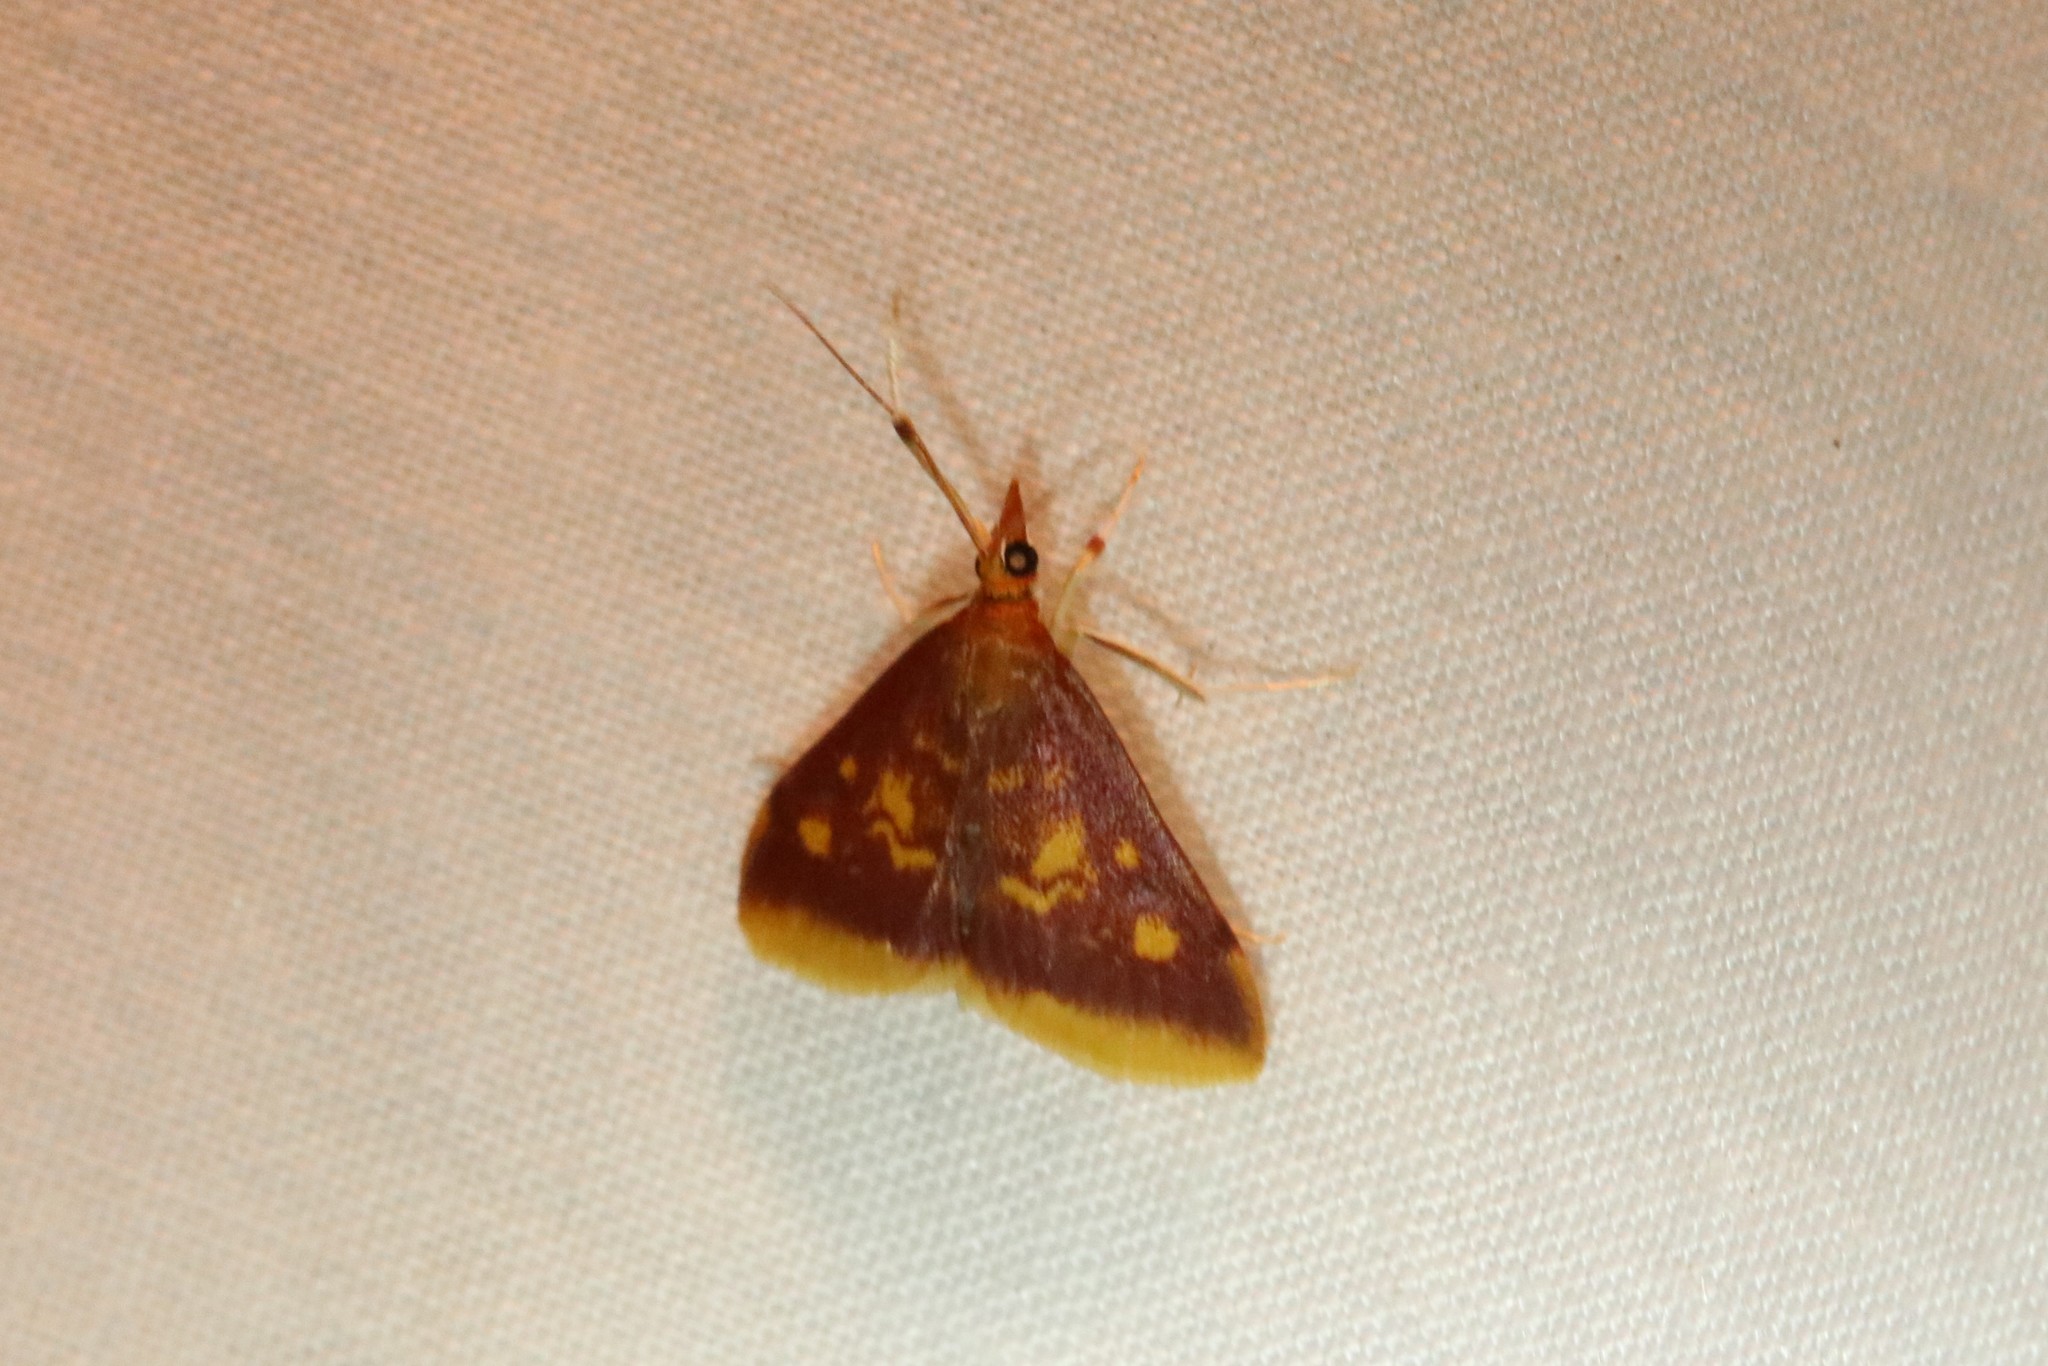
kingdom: Animalia
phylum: Arthropoda
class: Insecta
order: Lepidoptera
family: Crambidae
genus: Pyrausta
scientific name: Pyrausta acrionalis
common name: Mint-loving pyrausta moth
